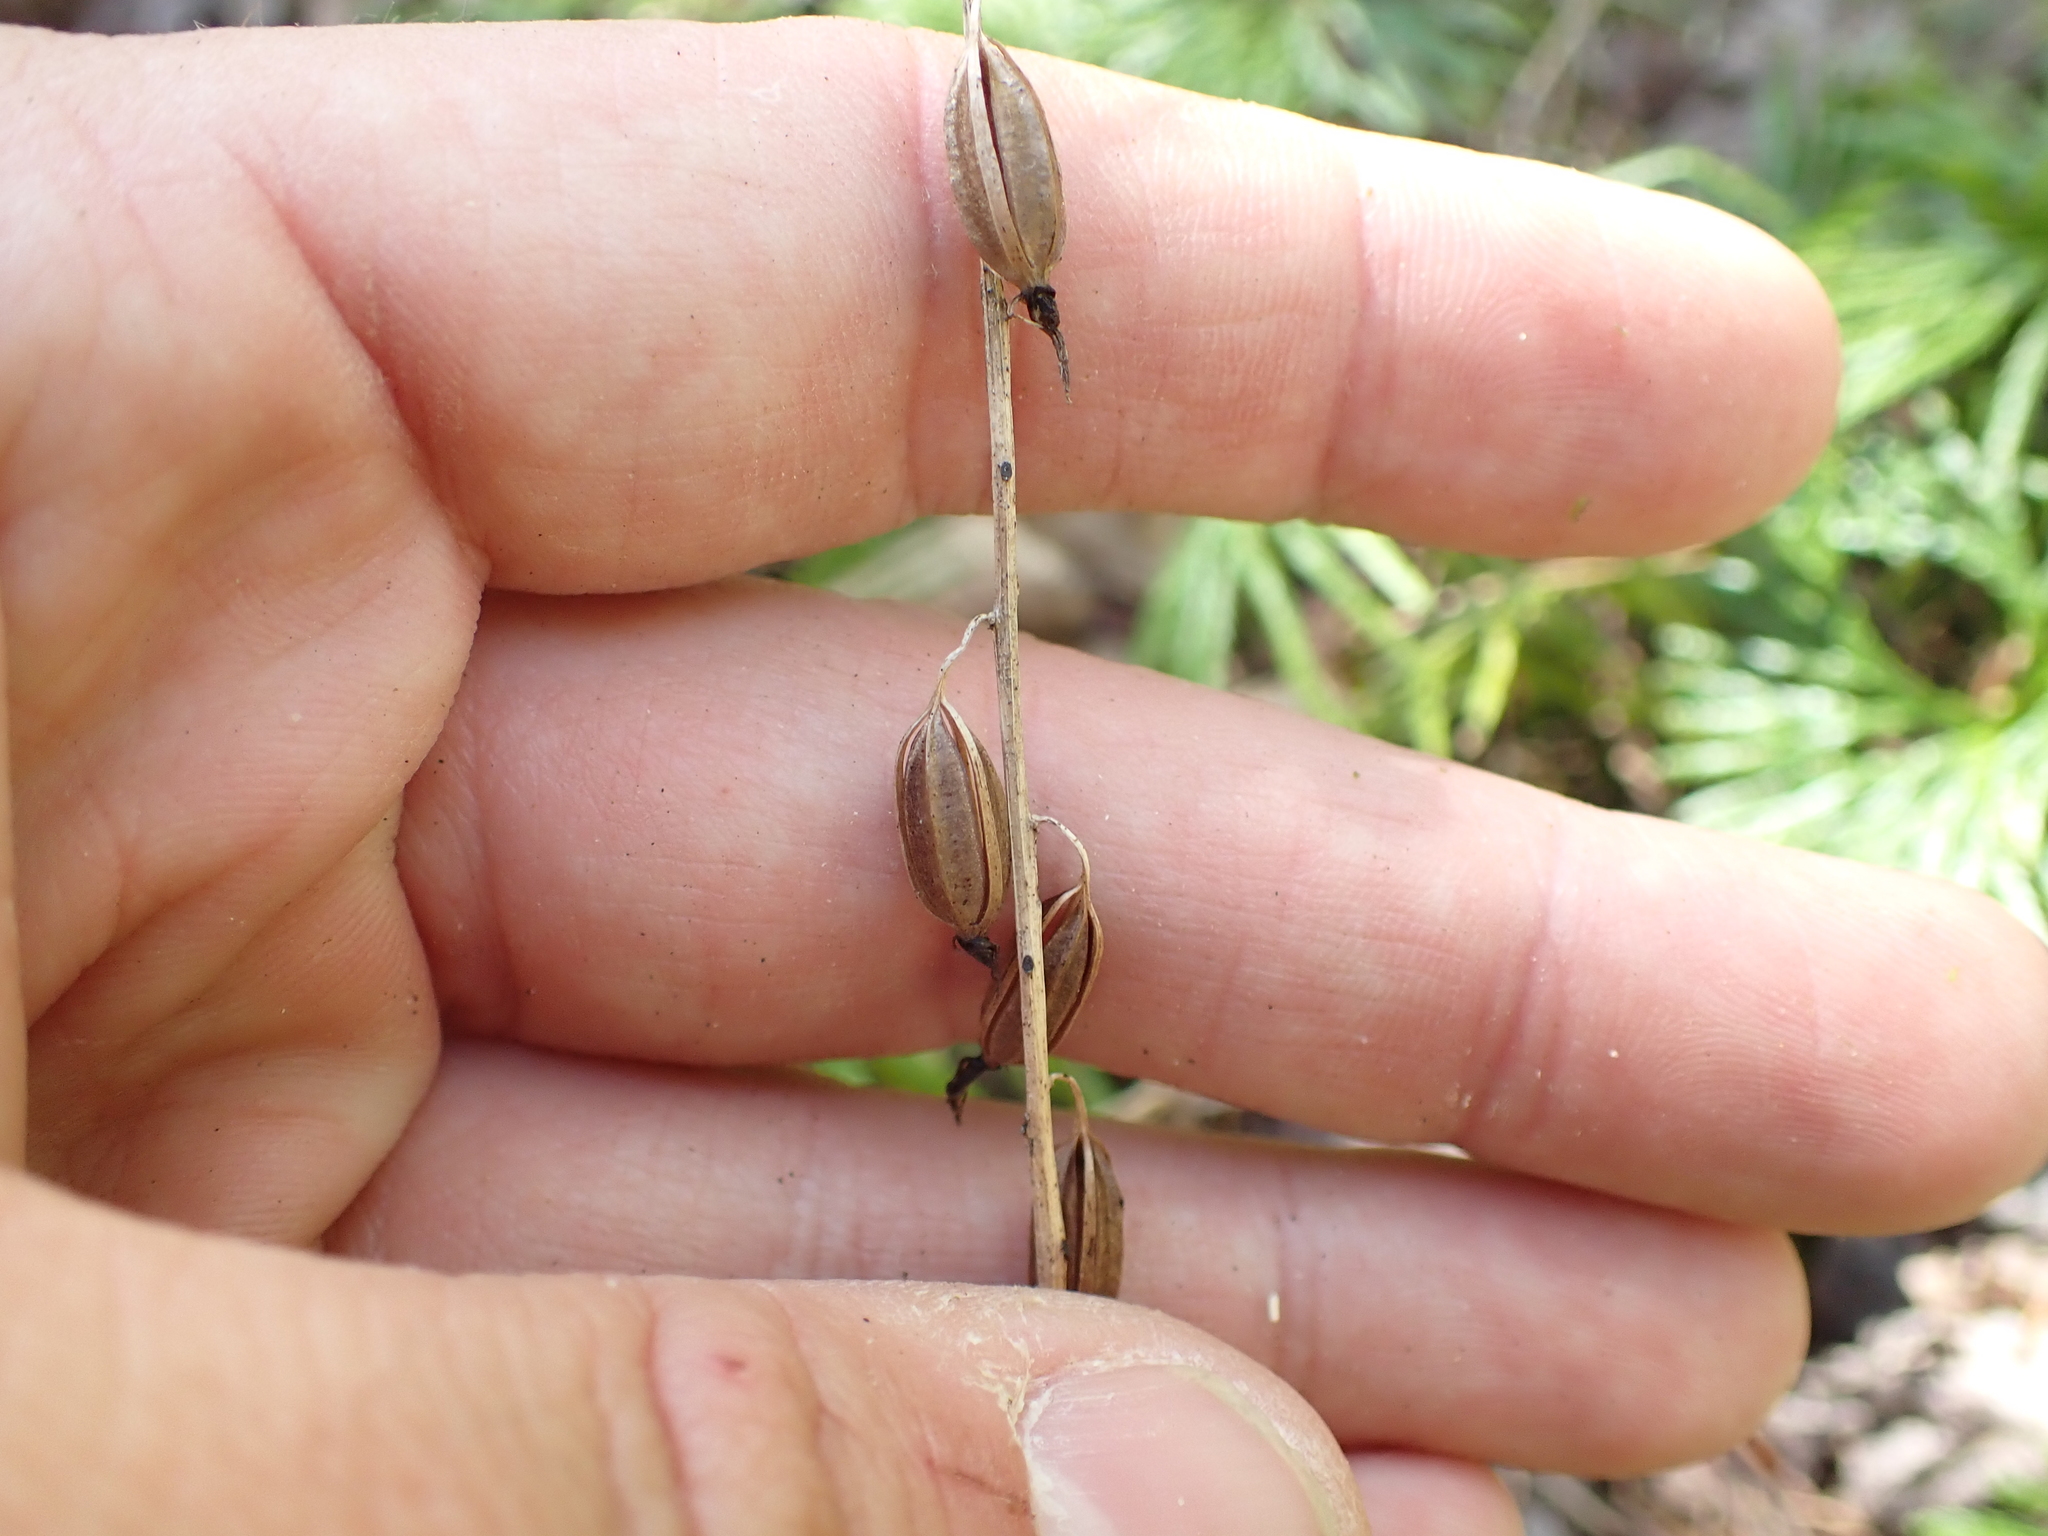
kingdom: Plantae
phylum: Tracheophyta
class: Liliopsida
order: Asparagales
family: Orchidaceae
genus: Tipularia
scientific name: Tipularia discolor
